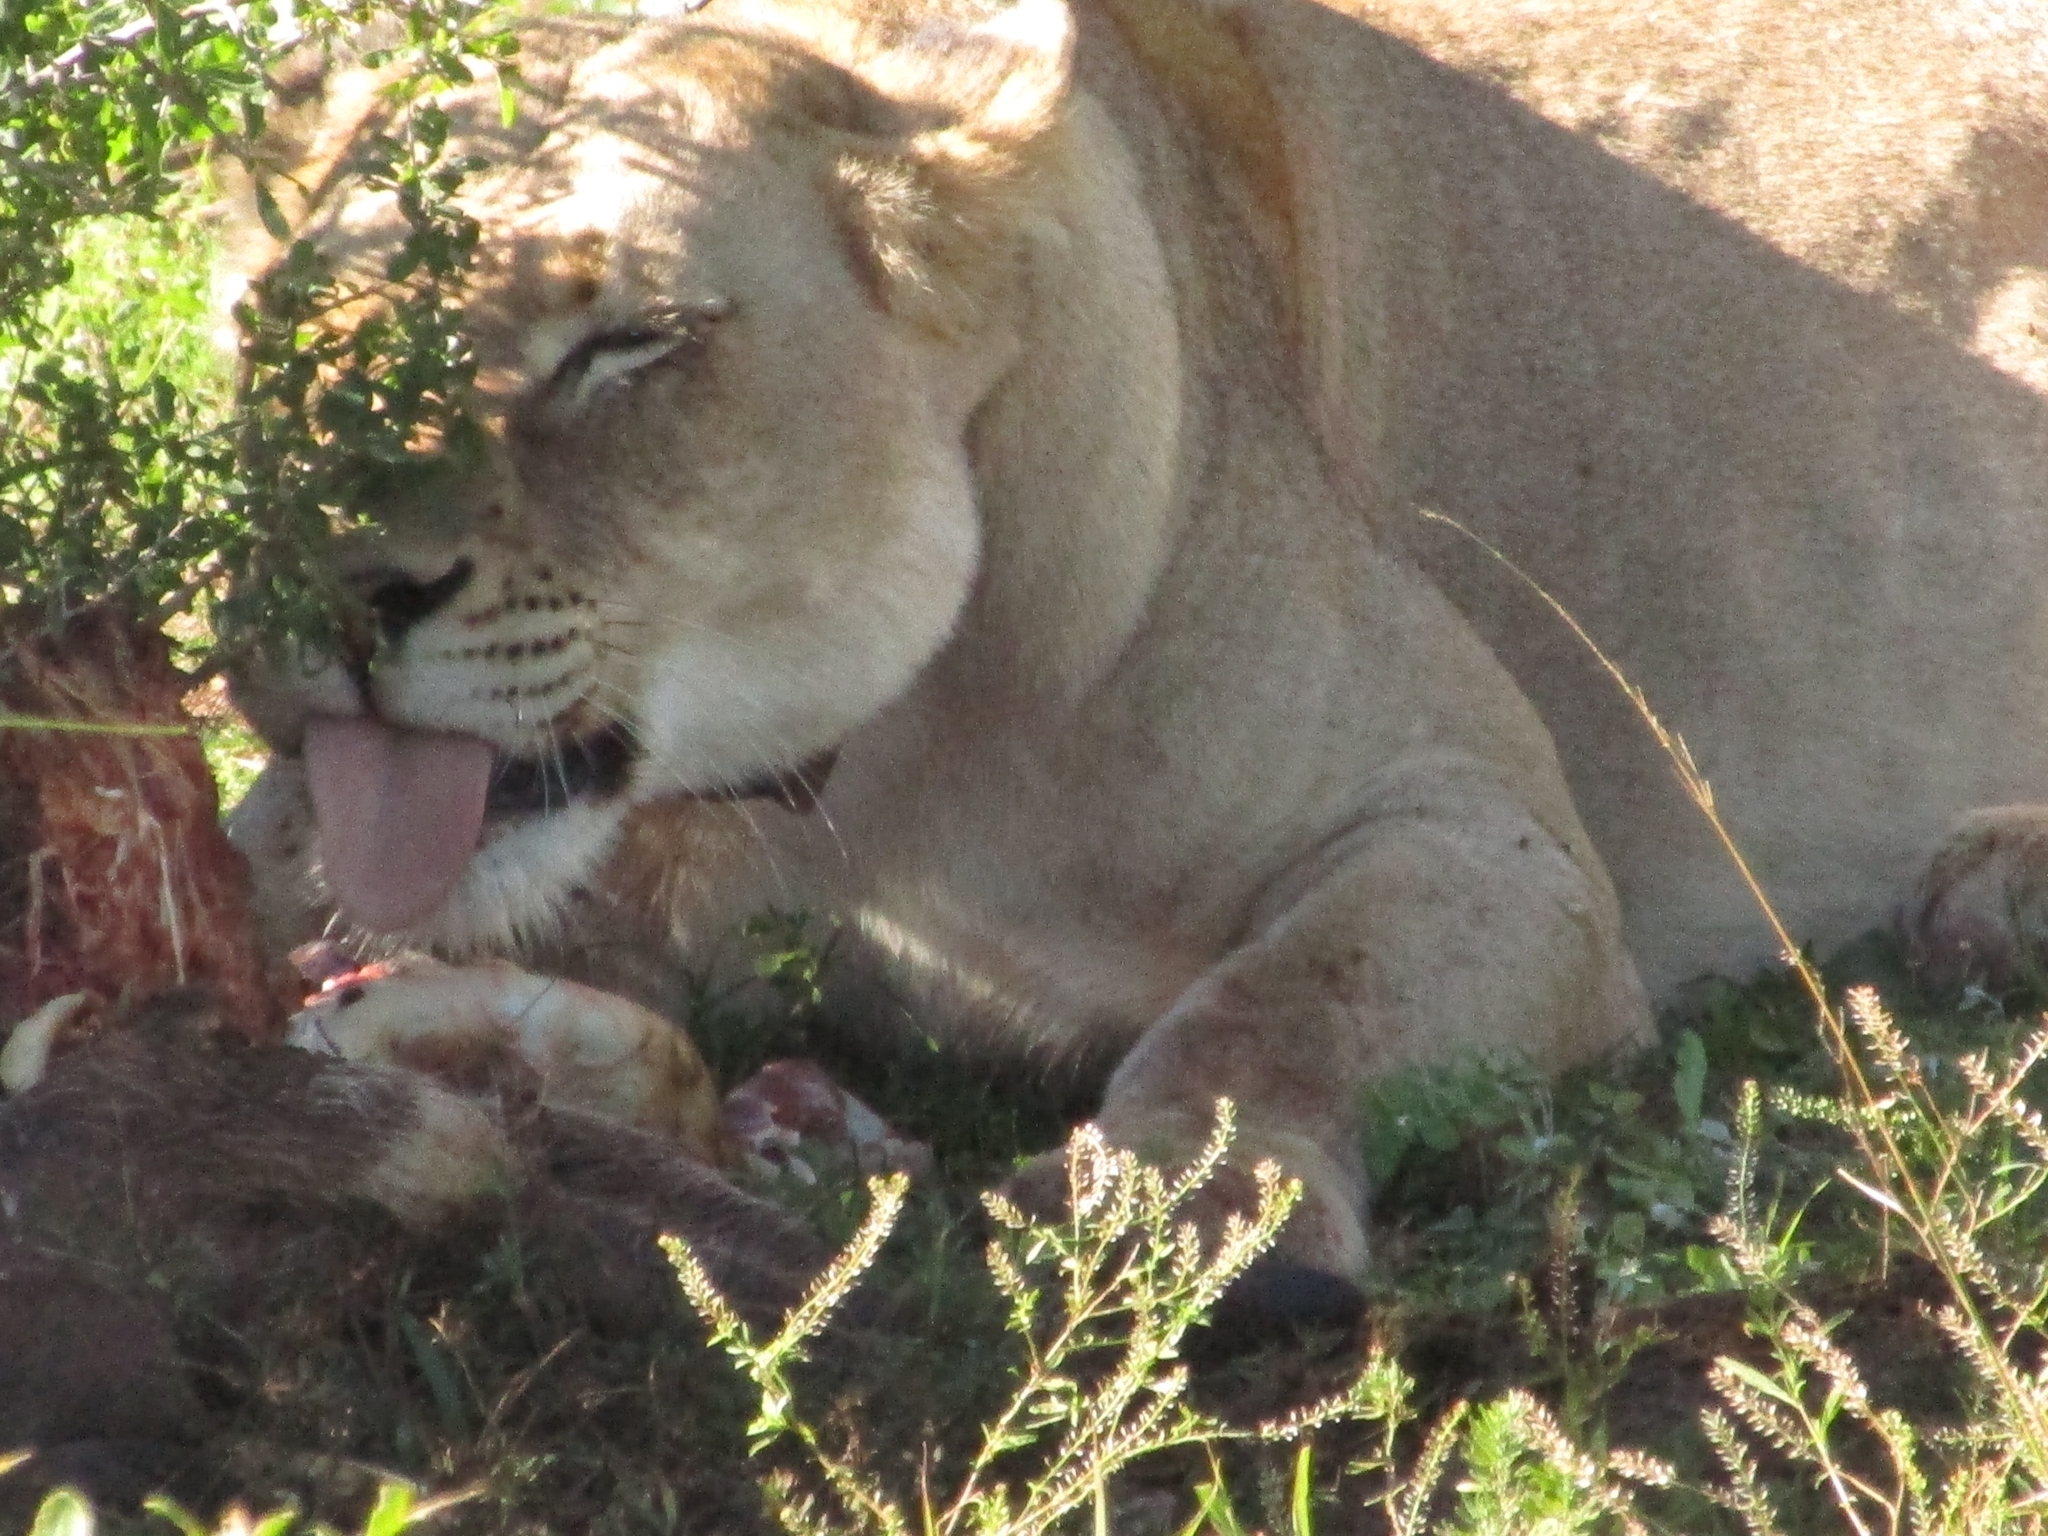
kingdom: Animalia
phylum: Chordata
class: Mammalia
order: Carnivora
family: Felidae
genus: Panthera
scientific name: Panthera leo
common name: Lion
